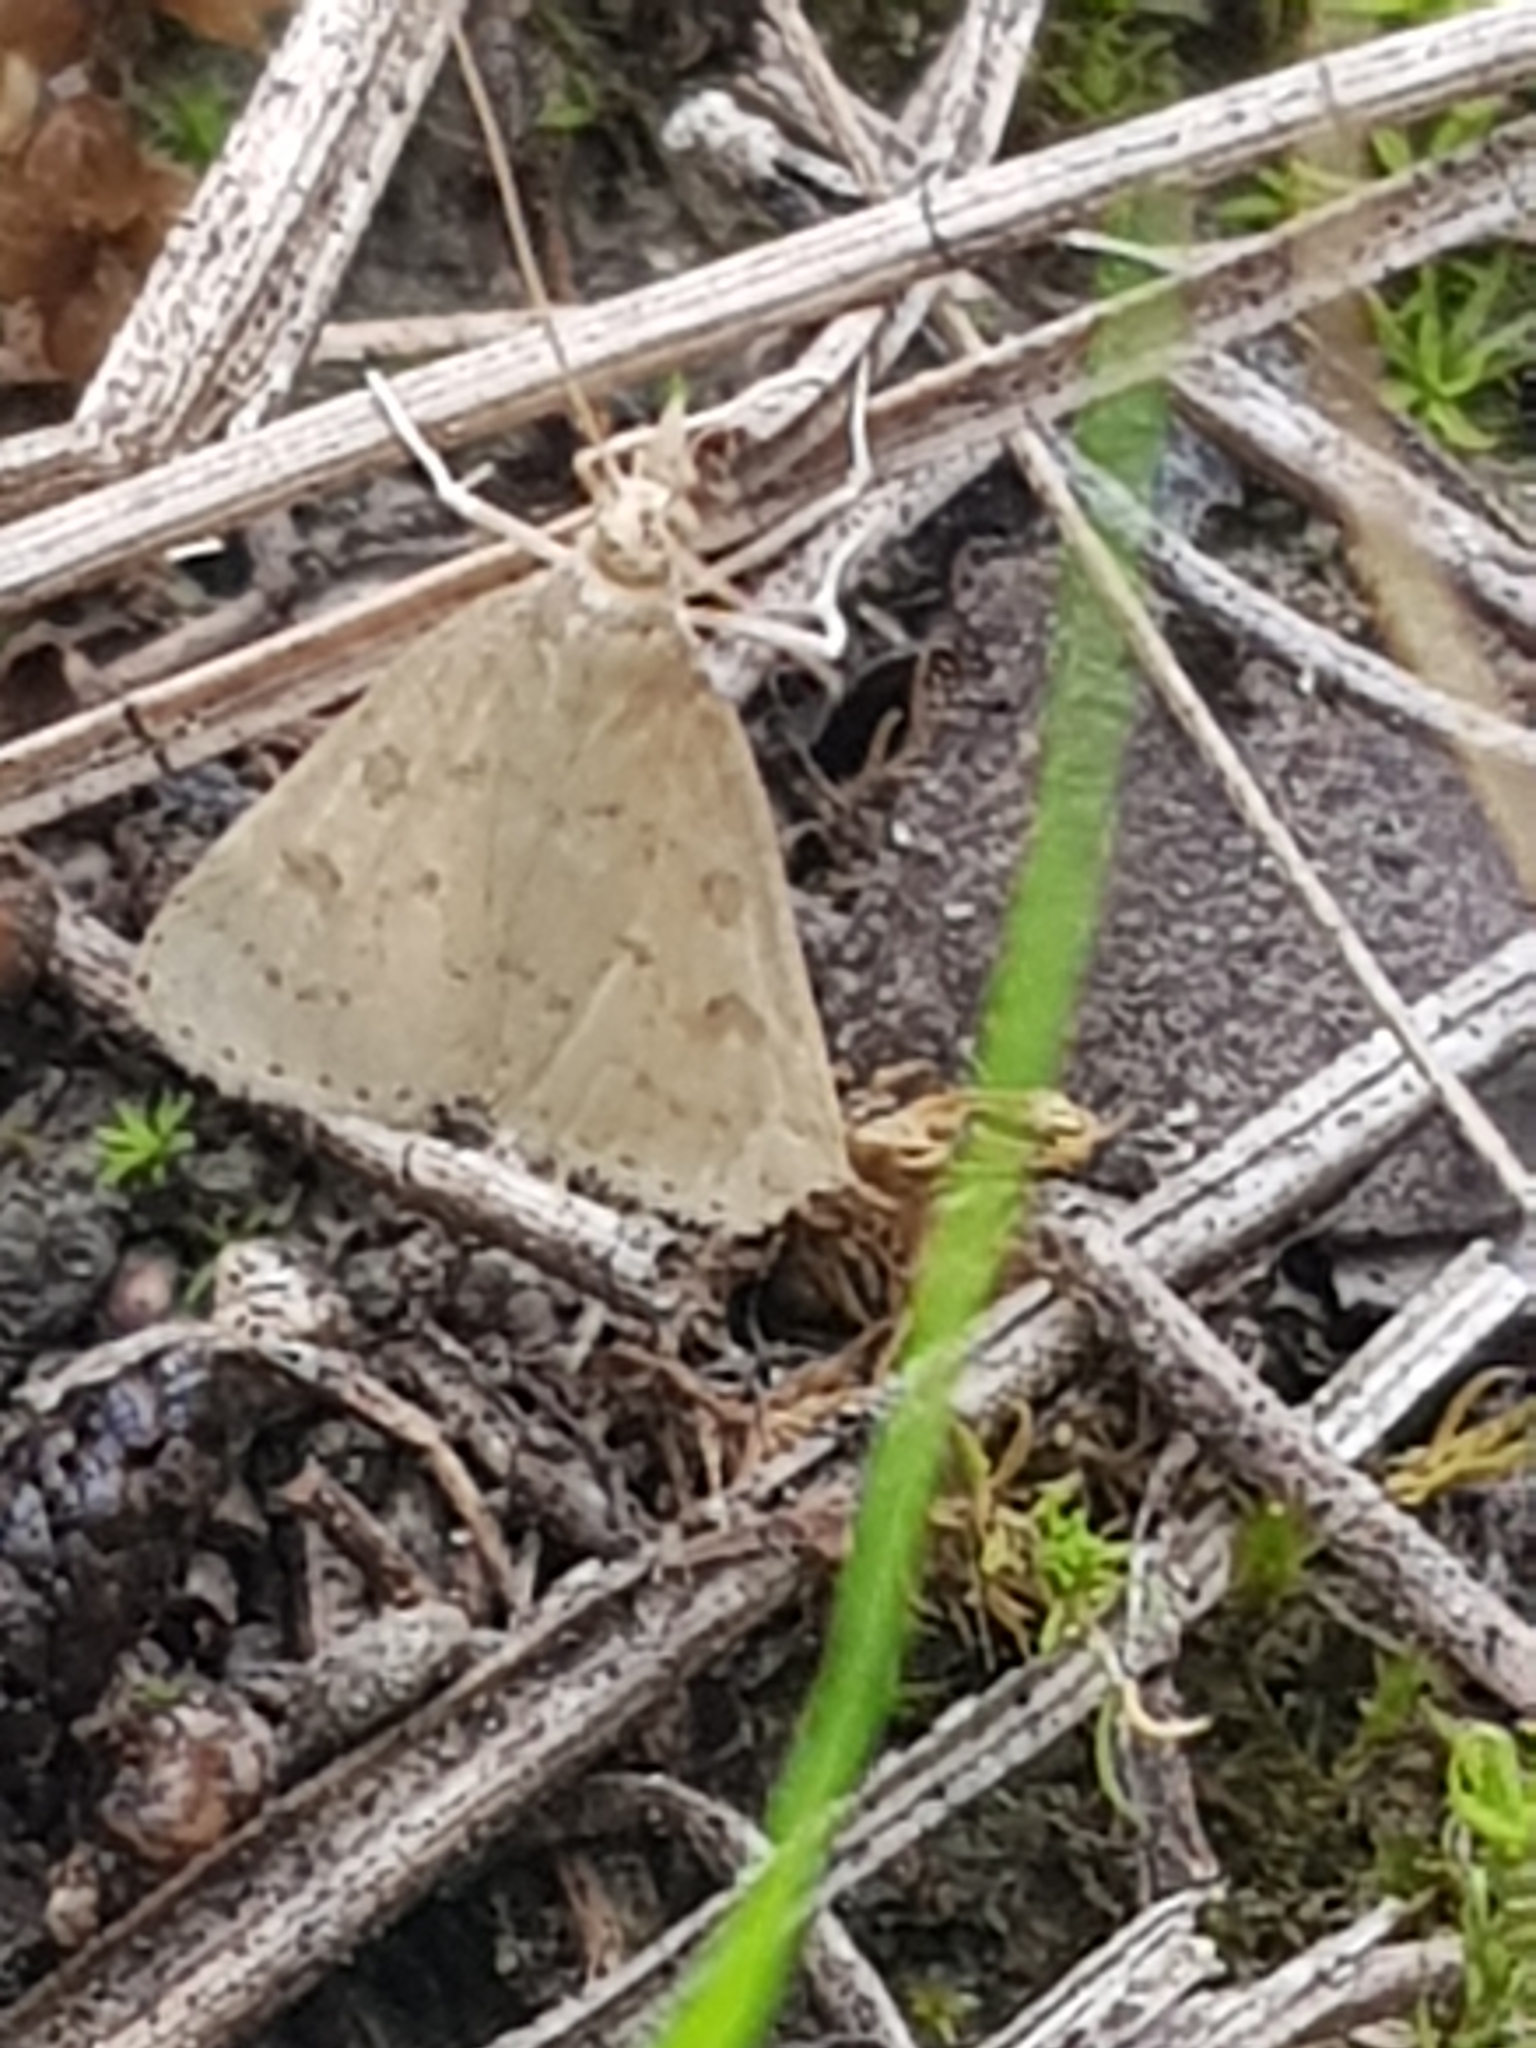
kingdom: Animalia
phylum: Arthropoda
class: Insecta
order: Lepidoptera
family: Crambidae
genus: Udea
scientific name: Udea numeralis
